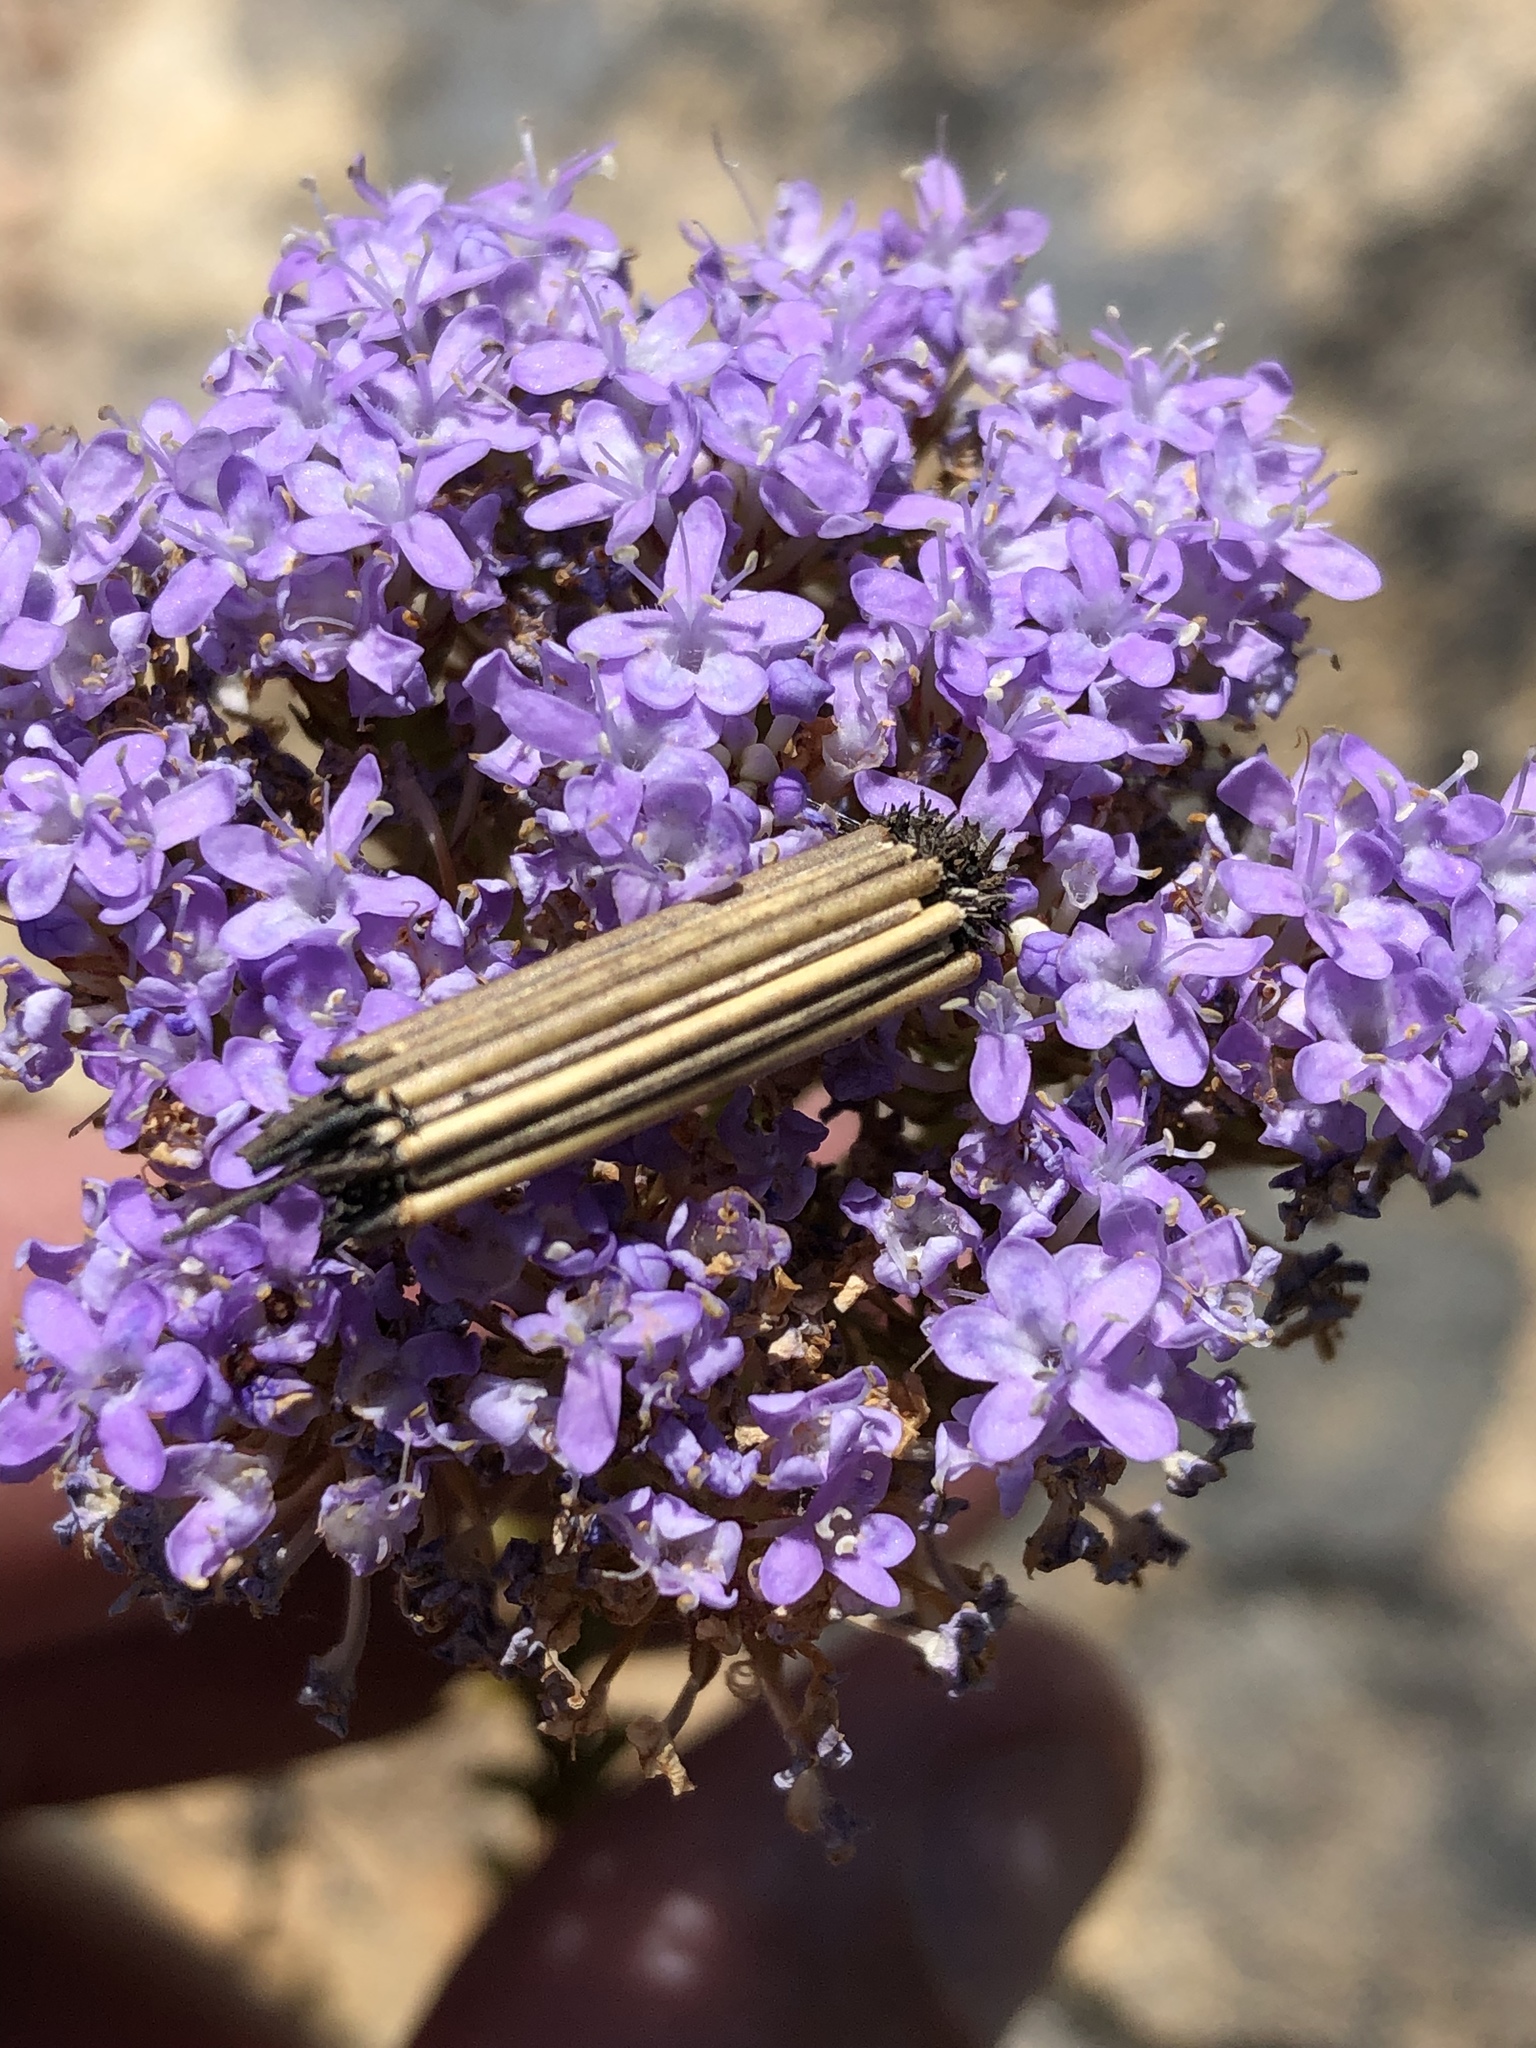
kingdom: Plantae
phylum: Tracheophyta
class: Magnoliopsida
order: Lamiales
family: Scrophulariaceae
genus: Pseudoselago
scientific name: Pseudoselago serrata
